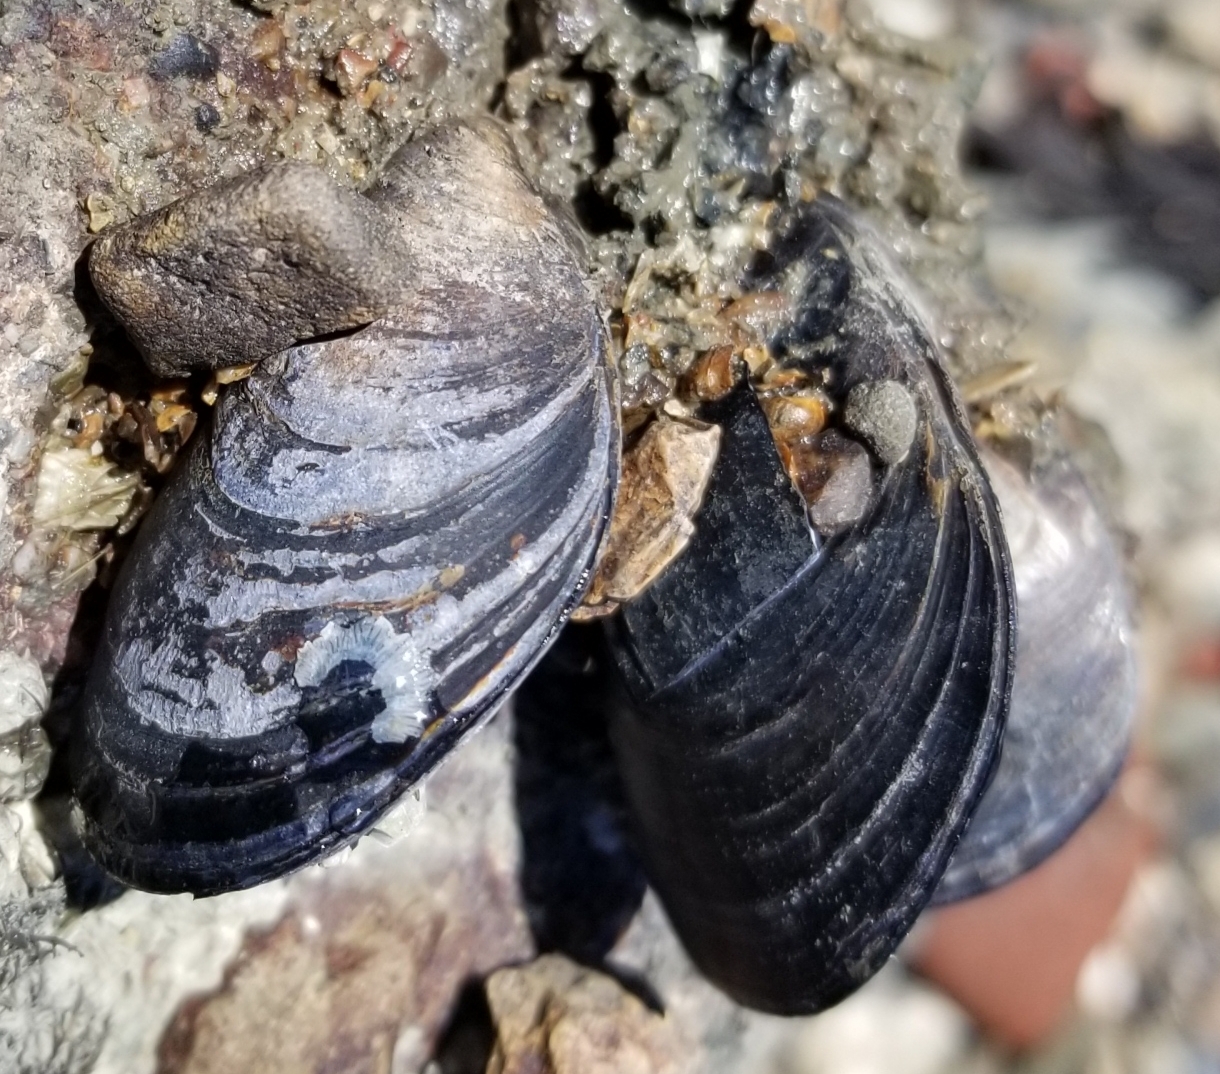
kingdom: Animalia
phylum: Mollusca
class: Bivalvia
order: Mytilida
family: Mytilidae
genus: Mytilus
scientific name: Mytilus
